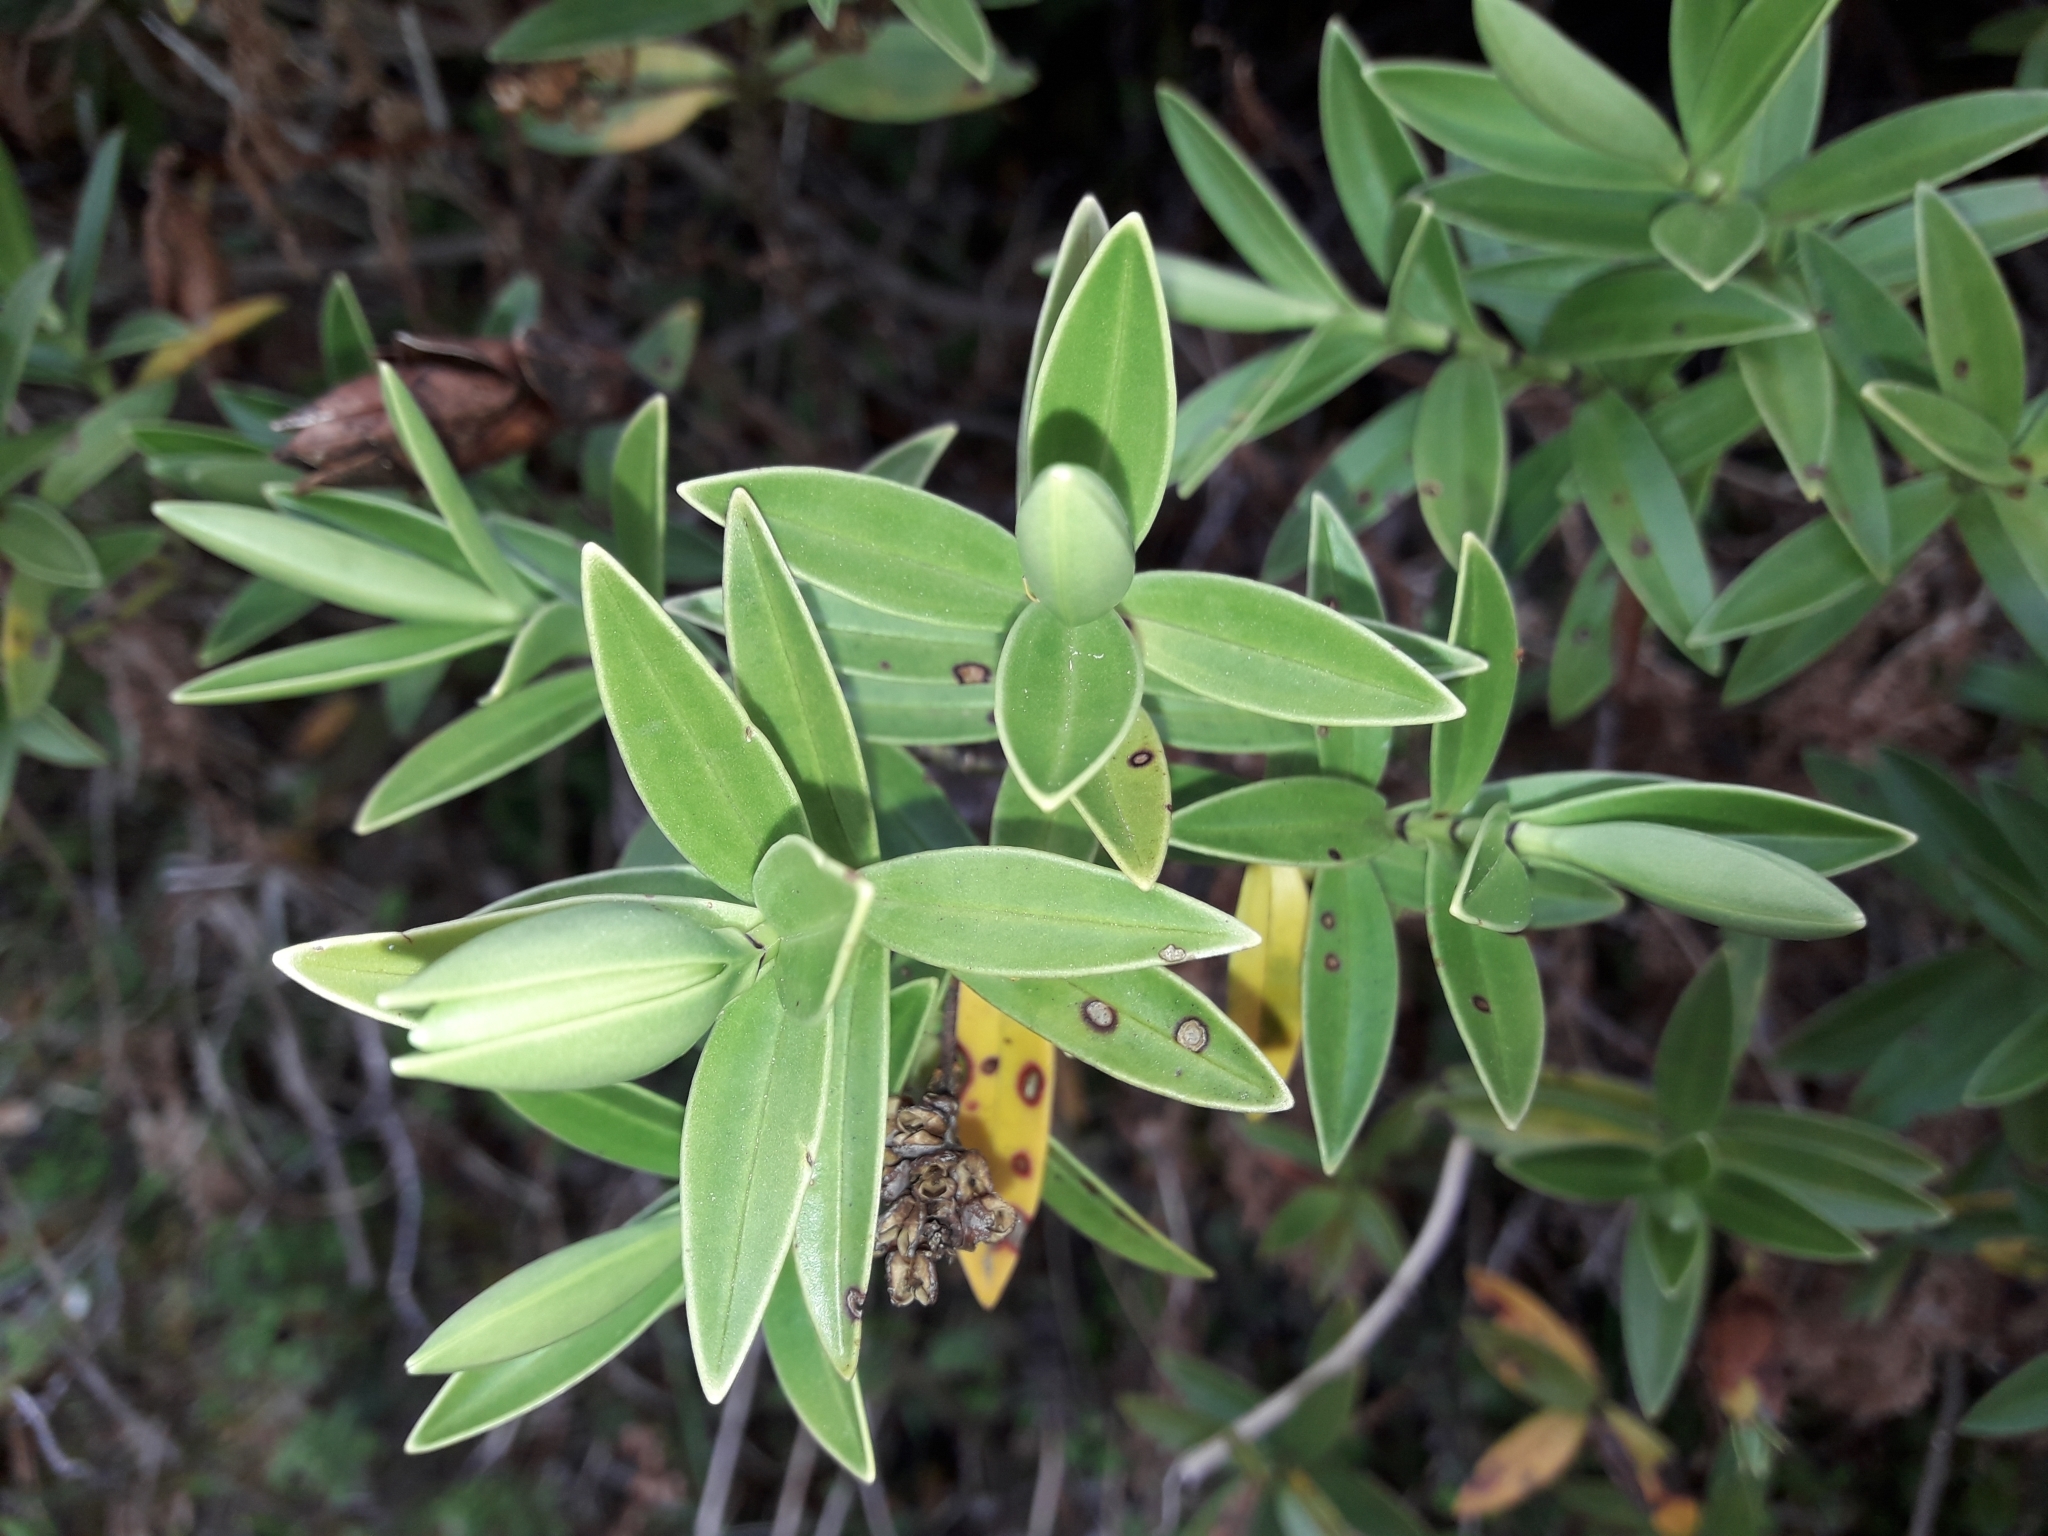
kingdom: Plantae
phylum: Tracheophyta
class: Magnoliopsida
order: Lamiales
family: Plantaginaceae
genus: Veronica
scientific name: Veronica subalpina
